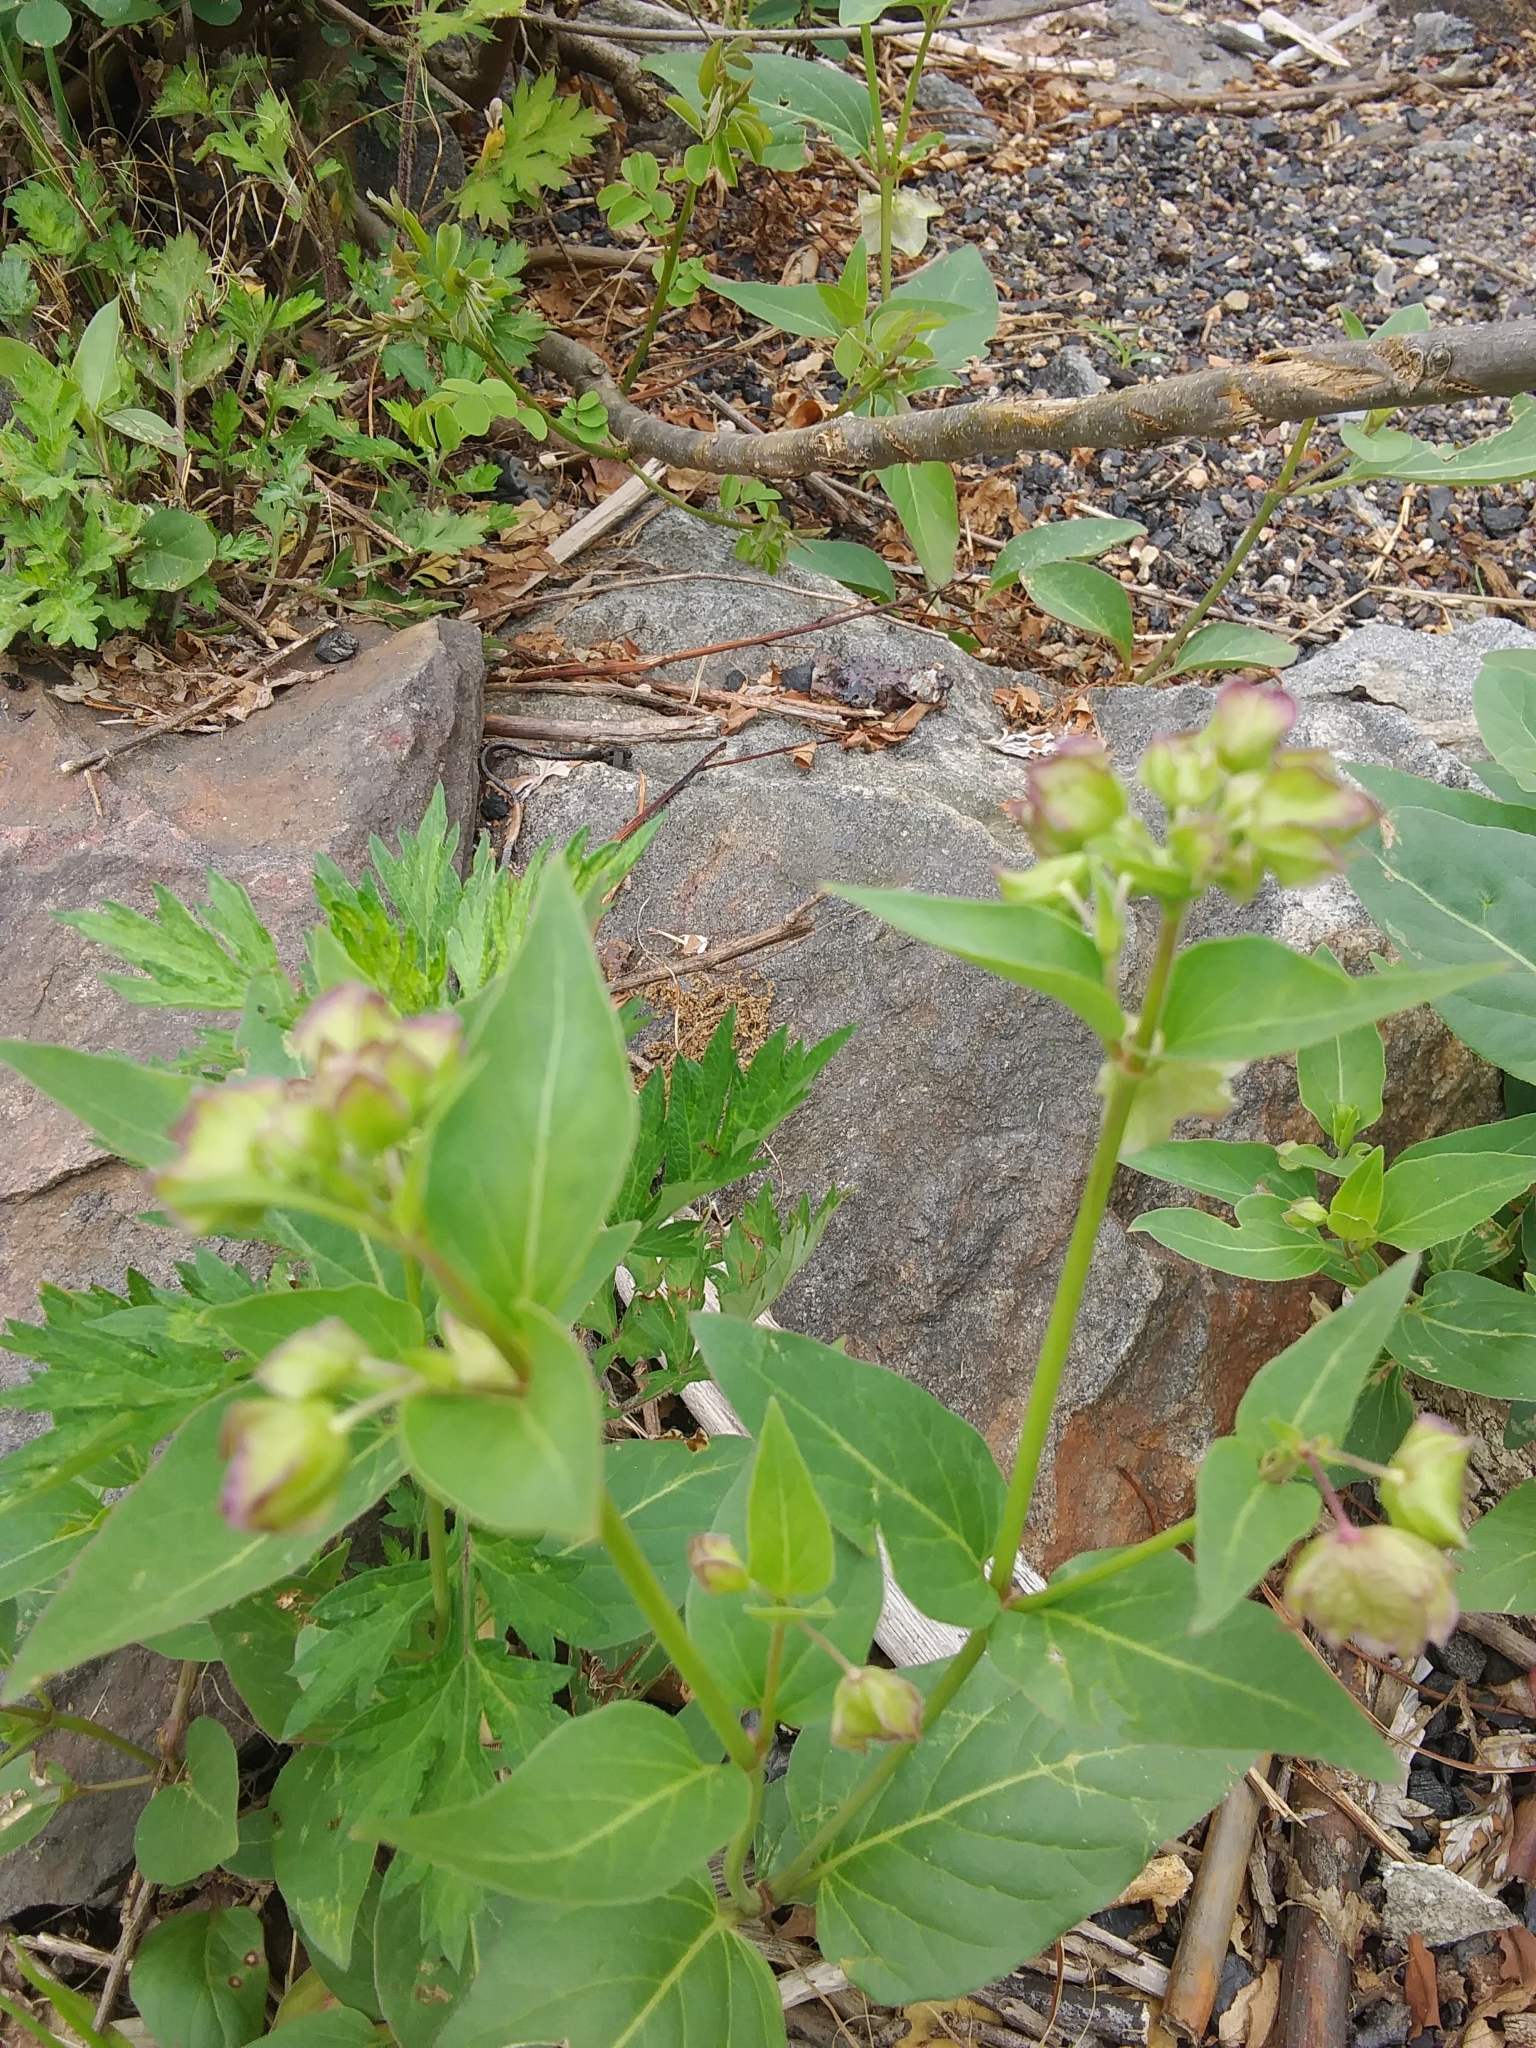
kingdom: Plantae
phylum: Tracheophyta
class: Magnoliopsida
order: Caryophyllales
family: Nyctaginaceae
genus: Mirabilis
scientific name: Mirabilis nyctaginea
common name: Umbrella wort
